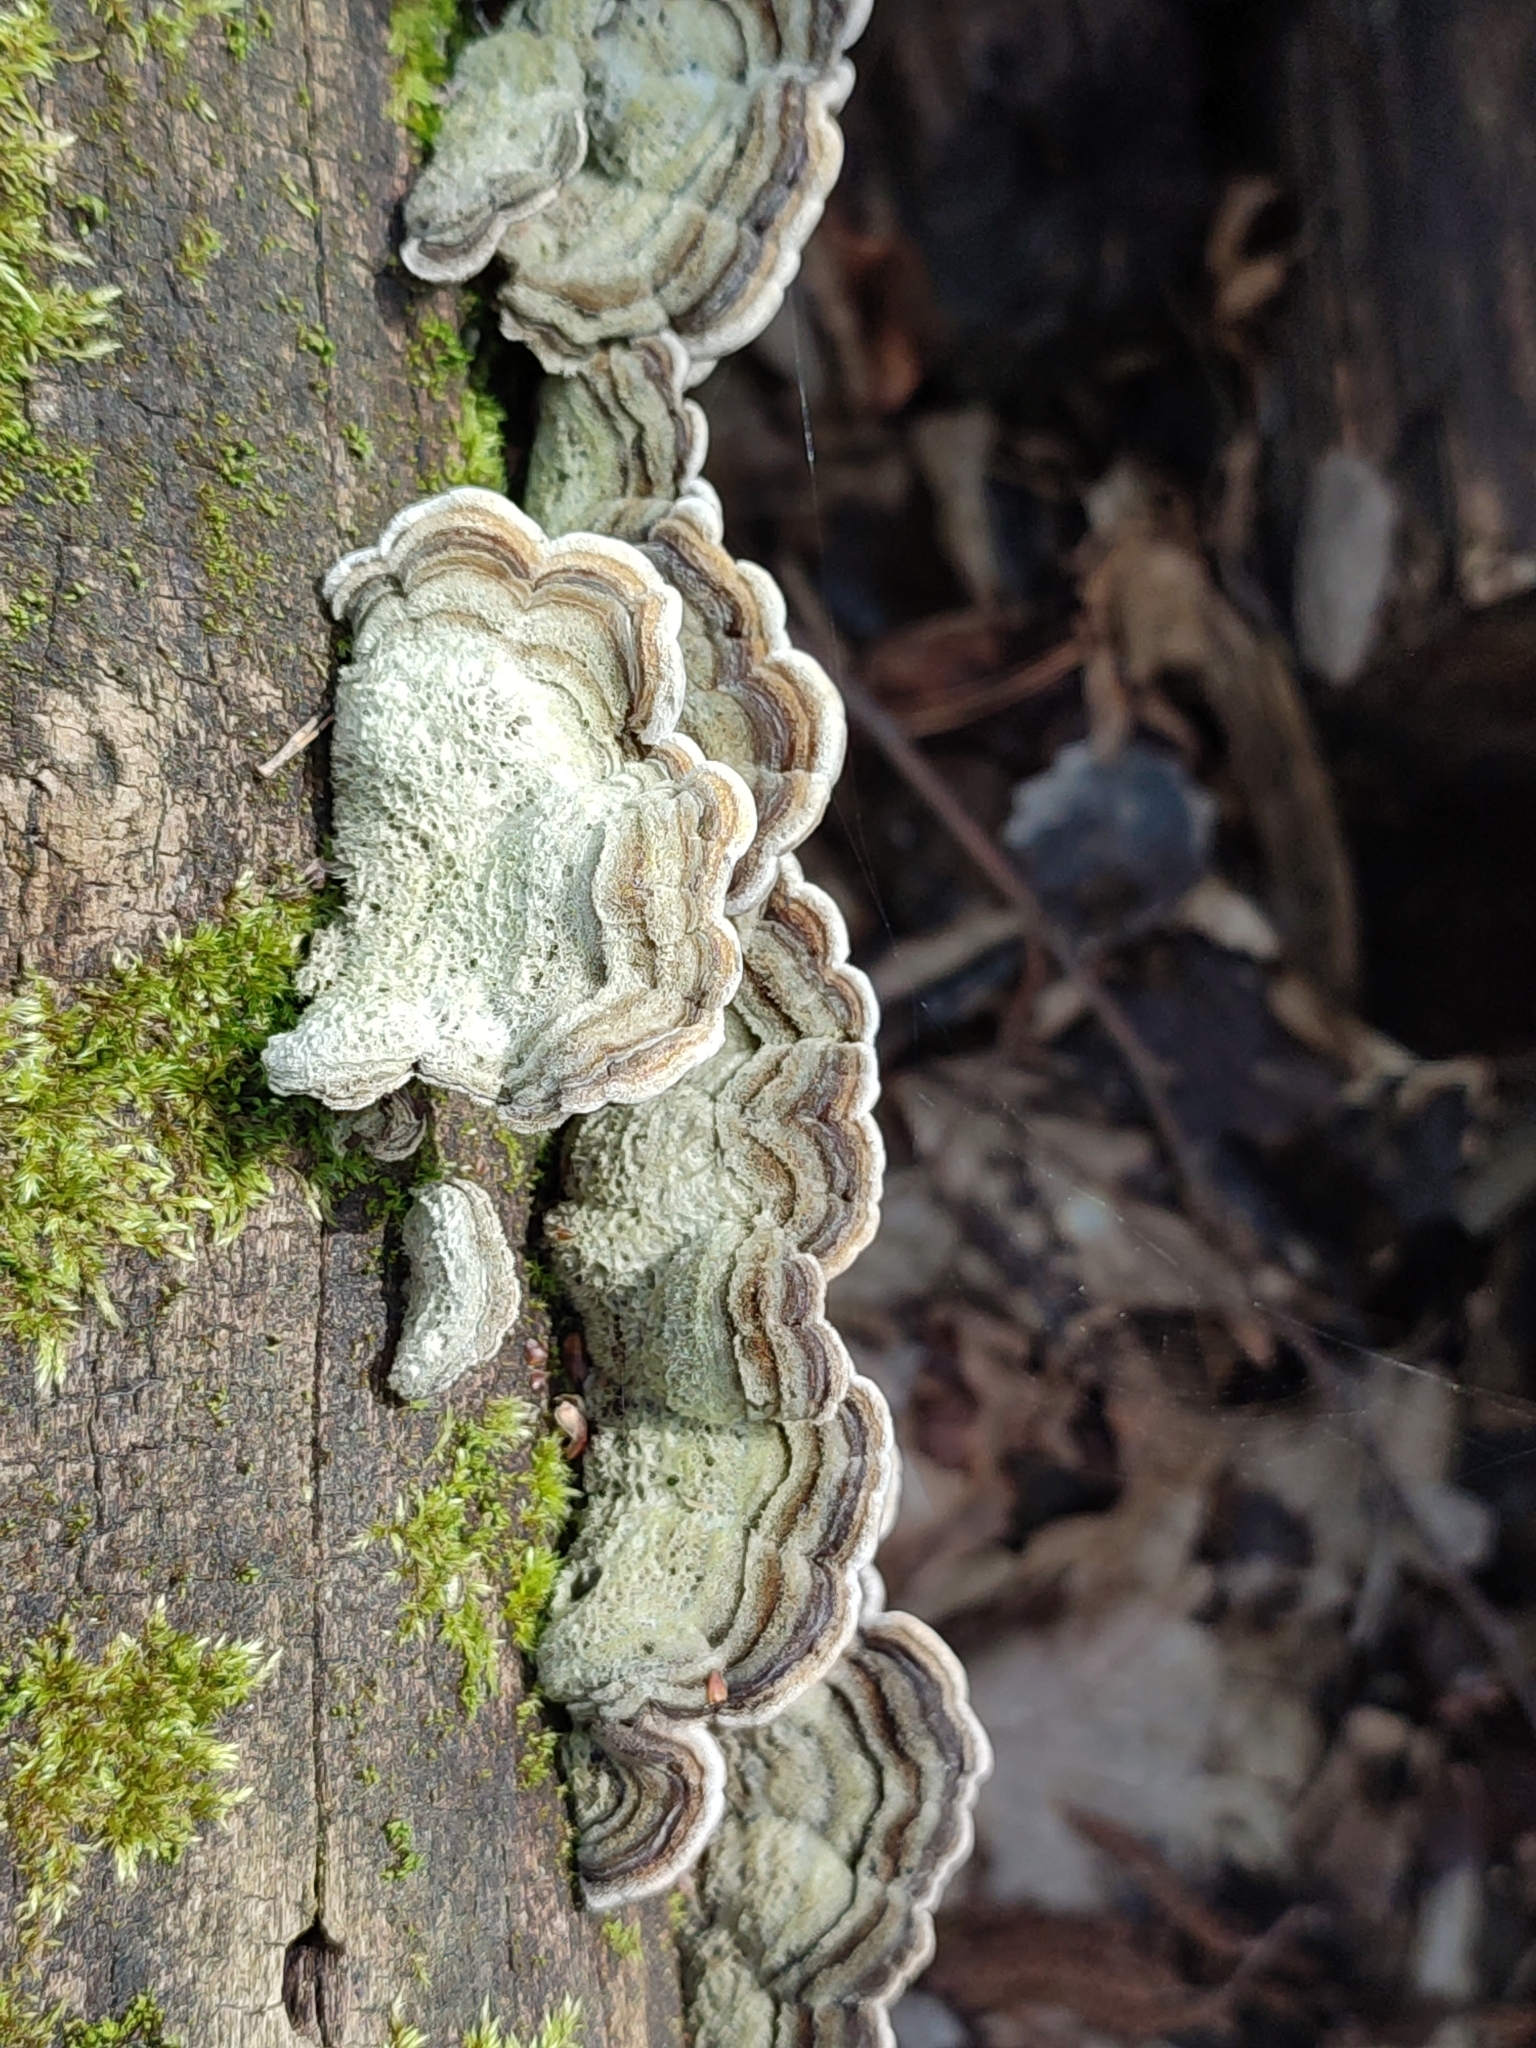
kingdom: Fungi
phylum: Basidiomycota
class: Agaricomycetes
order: Auriculariales
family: Auriculariaceae
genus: Auricularia
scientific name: Auricularia mesenterica
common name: Tripe fungus
